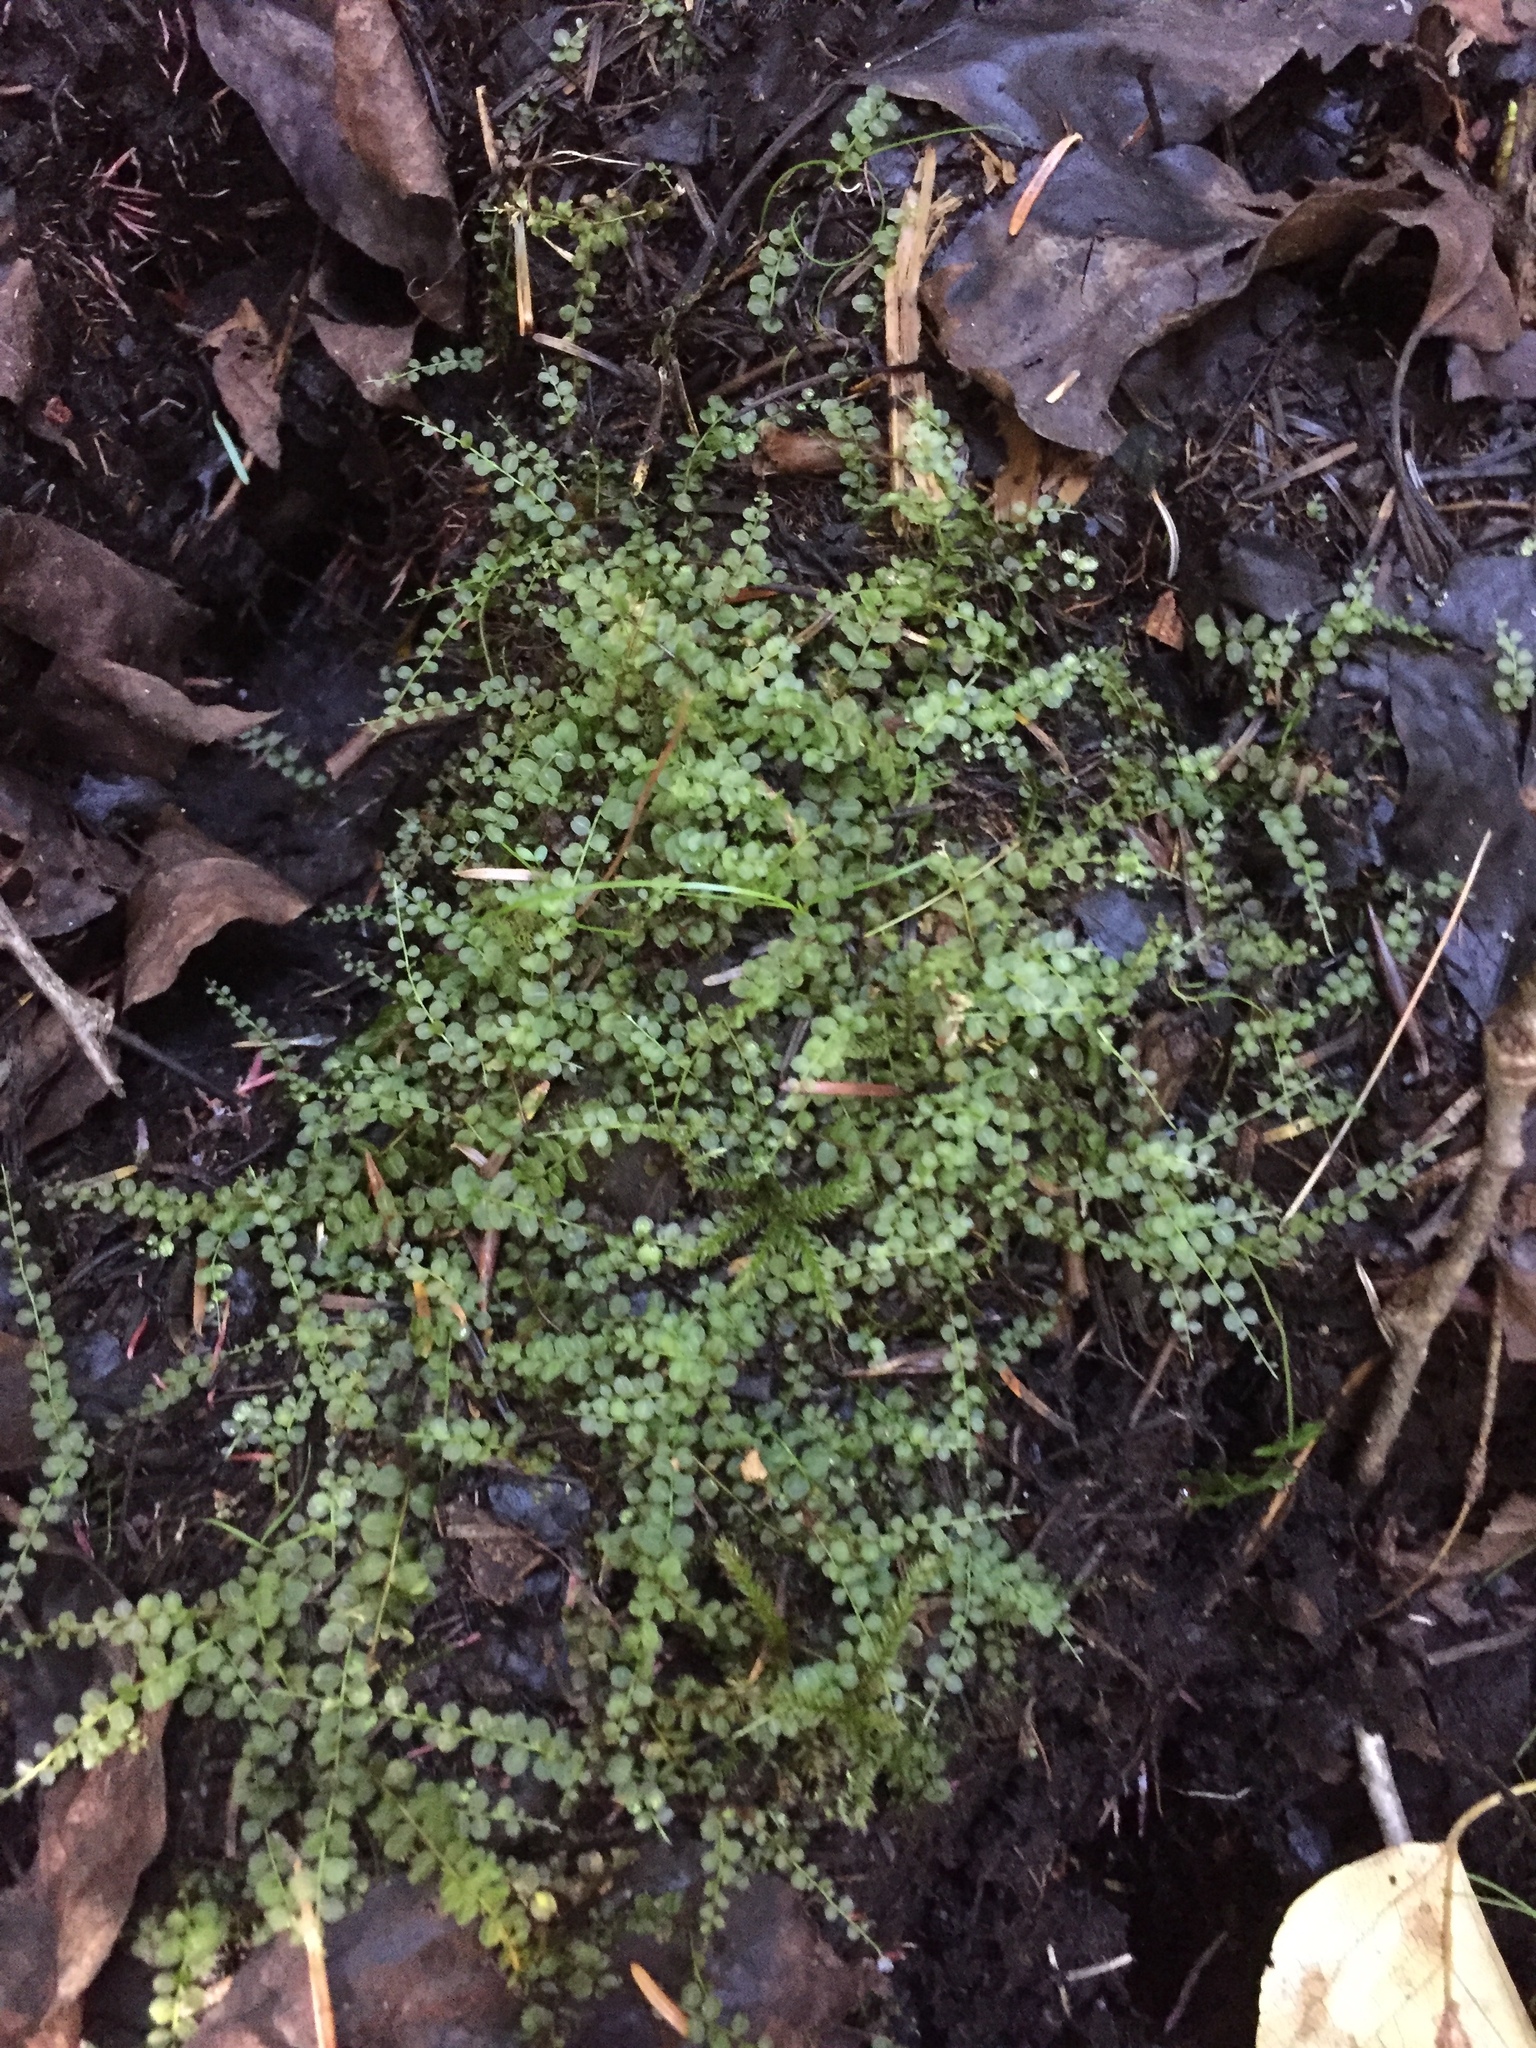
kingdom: Plantae
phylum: Tracheophyta
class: Magnoliopsida
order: Ericales
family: Ericaceae
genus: Gaultheria
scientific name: Gaultheria hispidula
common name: Cancer wintergreen
